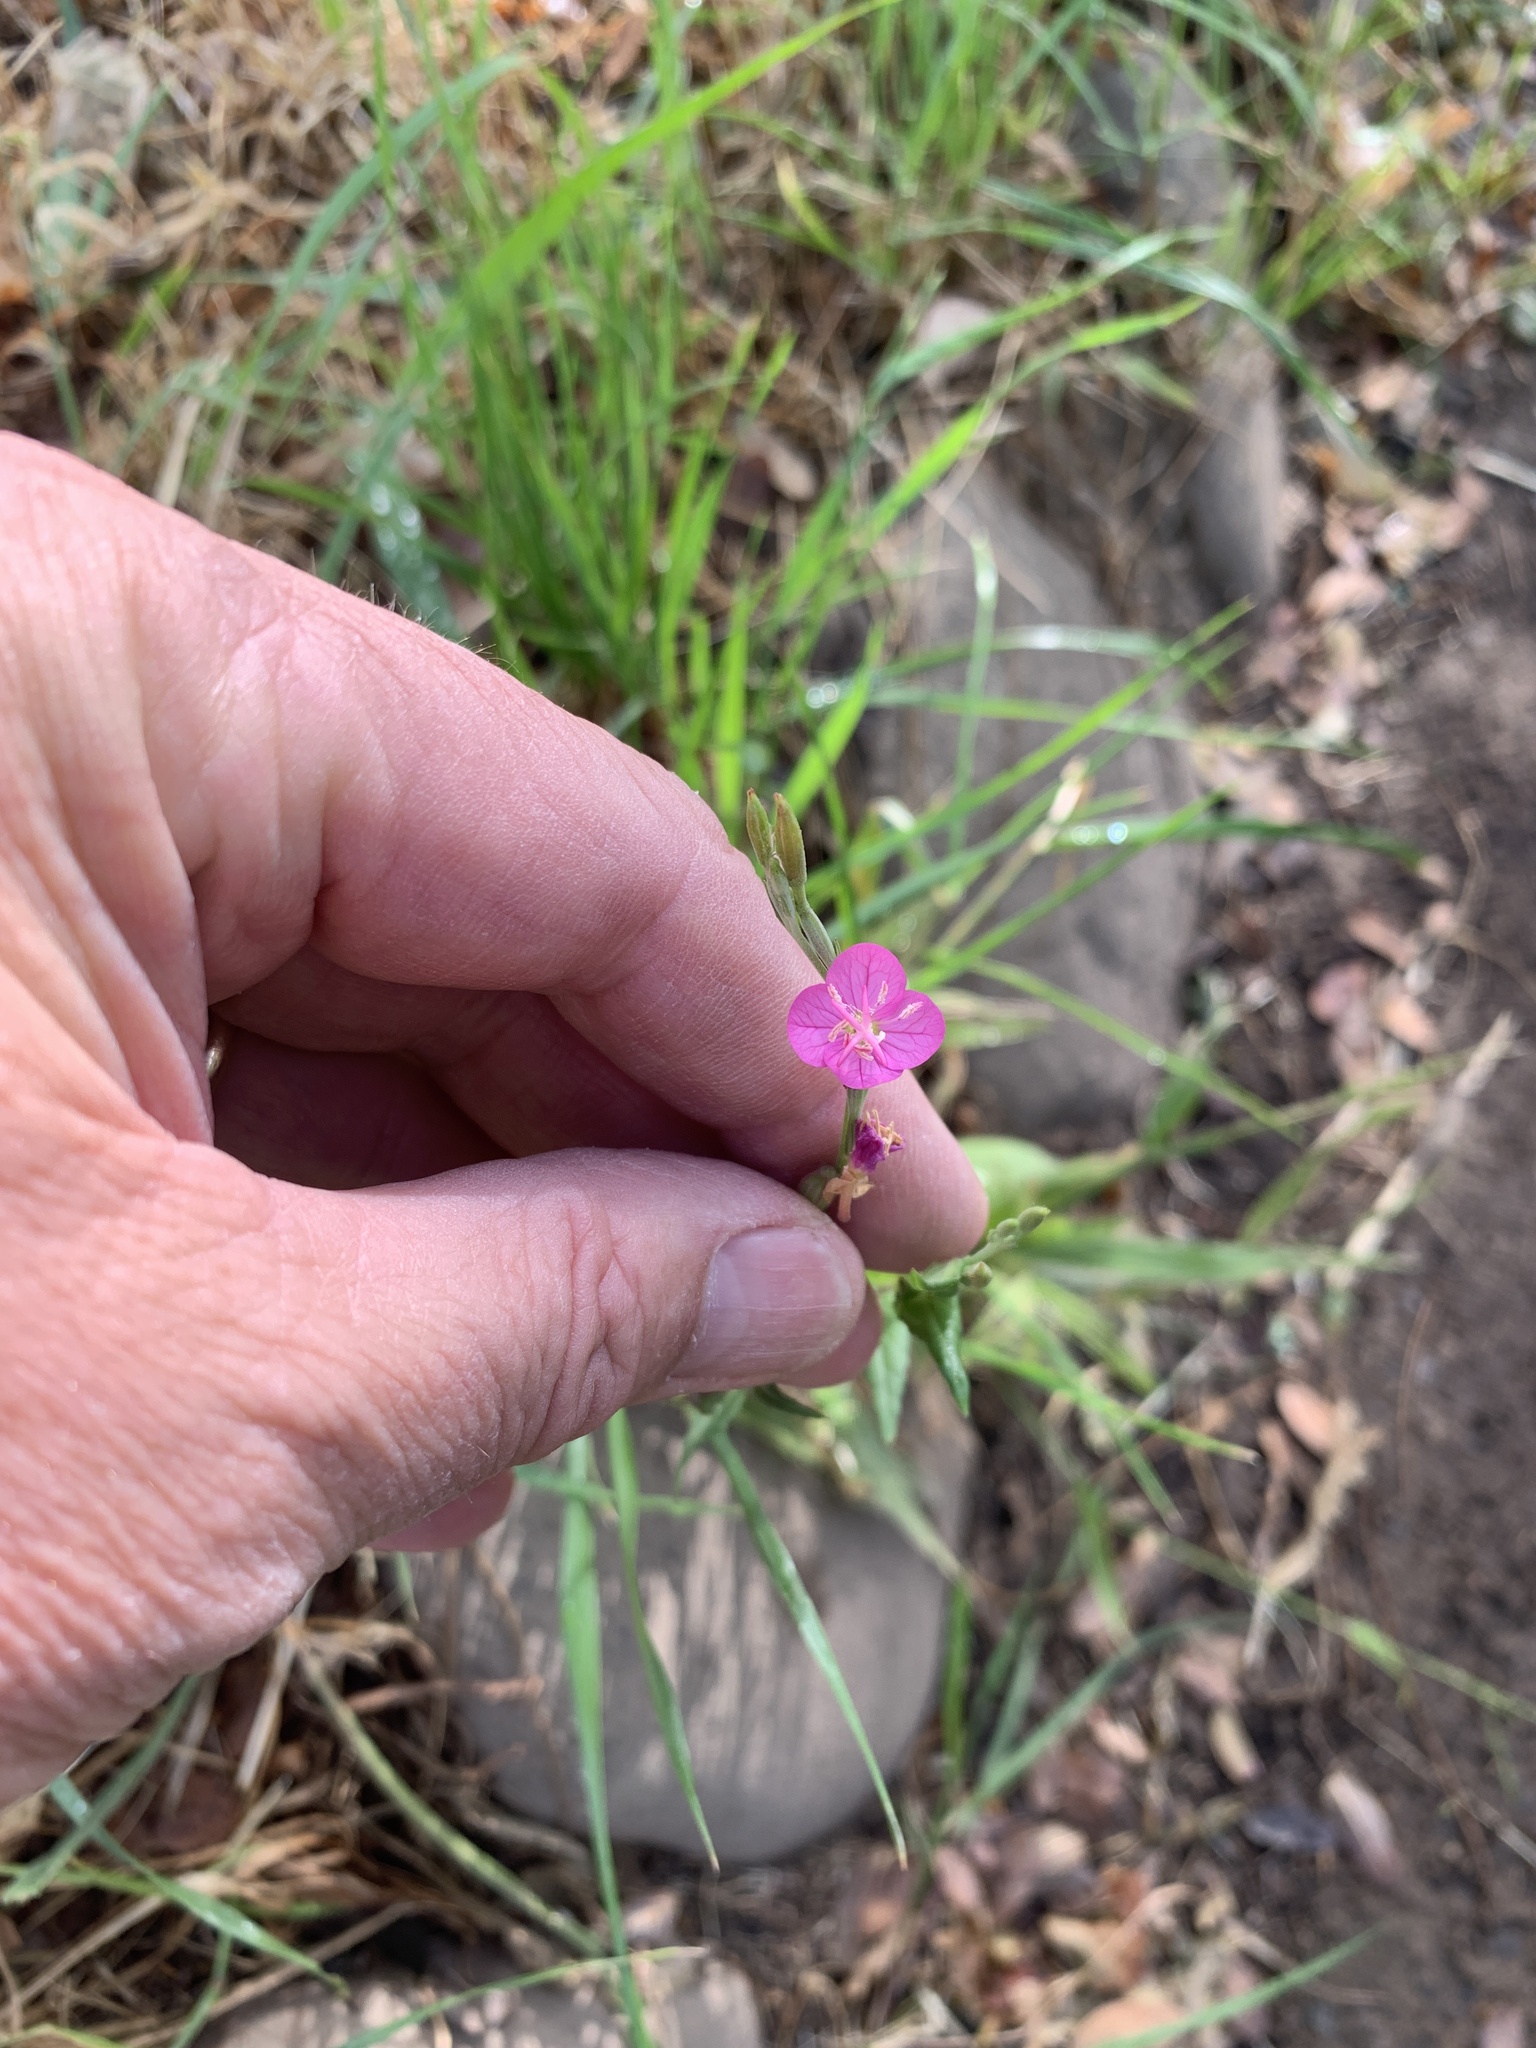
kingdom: Plantae
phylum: Tracheophyta
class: Magnoliopsida
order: Myrtales
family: Onagraceae
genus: Oenothera
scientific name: Oenothera rosea
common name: Rosy evening-primrose
